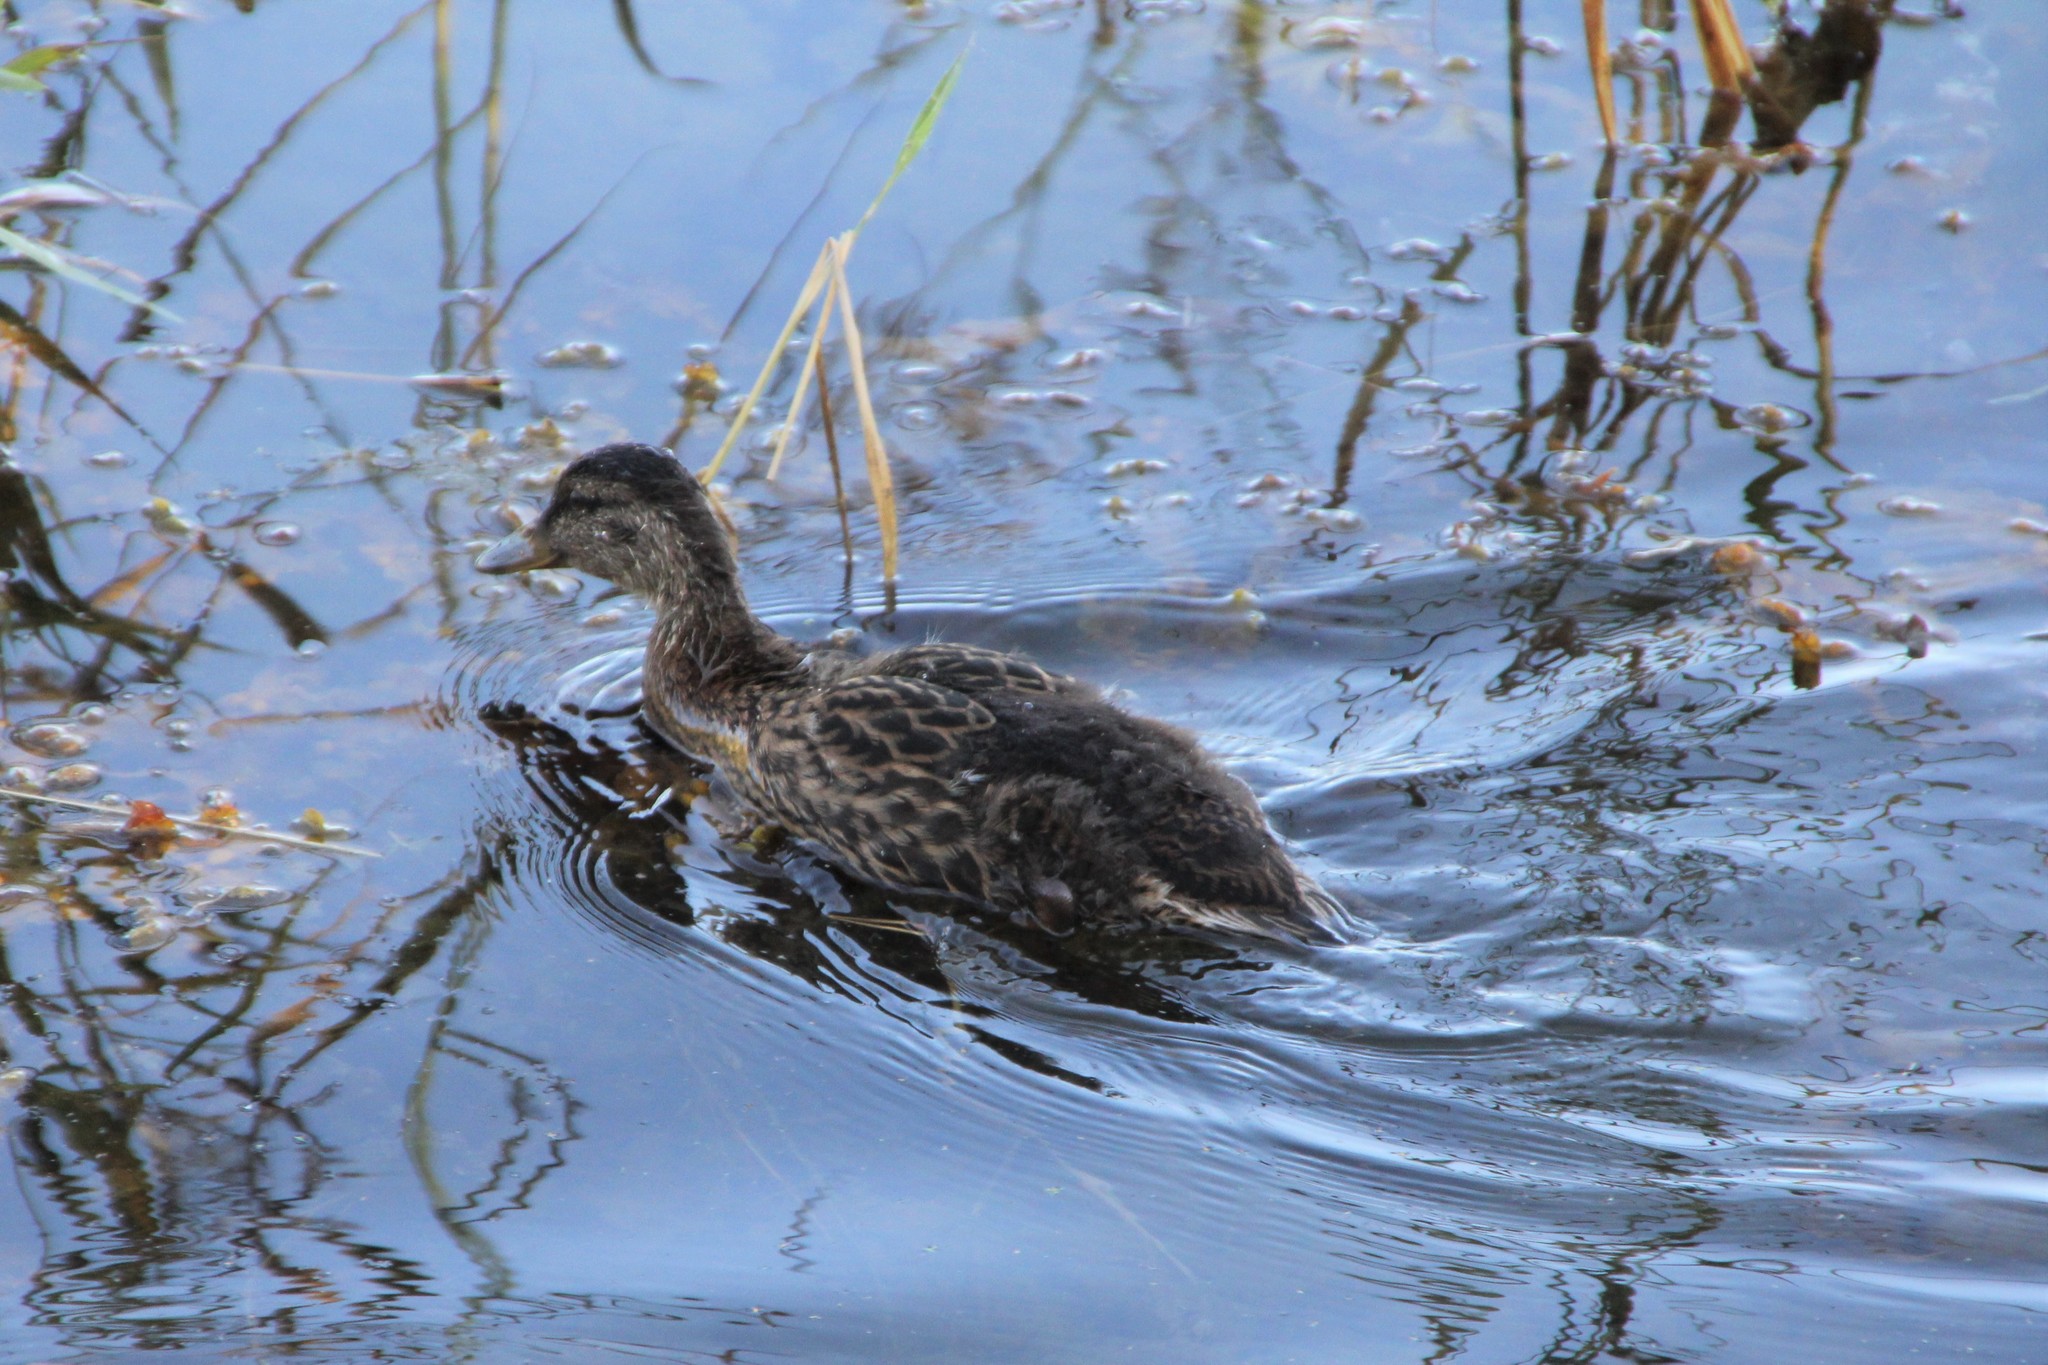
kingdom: Animalia
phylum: Chordata
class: Aves
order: Anseriformes
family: Anatidae
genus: Anas
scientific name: Anas platyrhynchos
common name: Mallard
